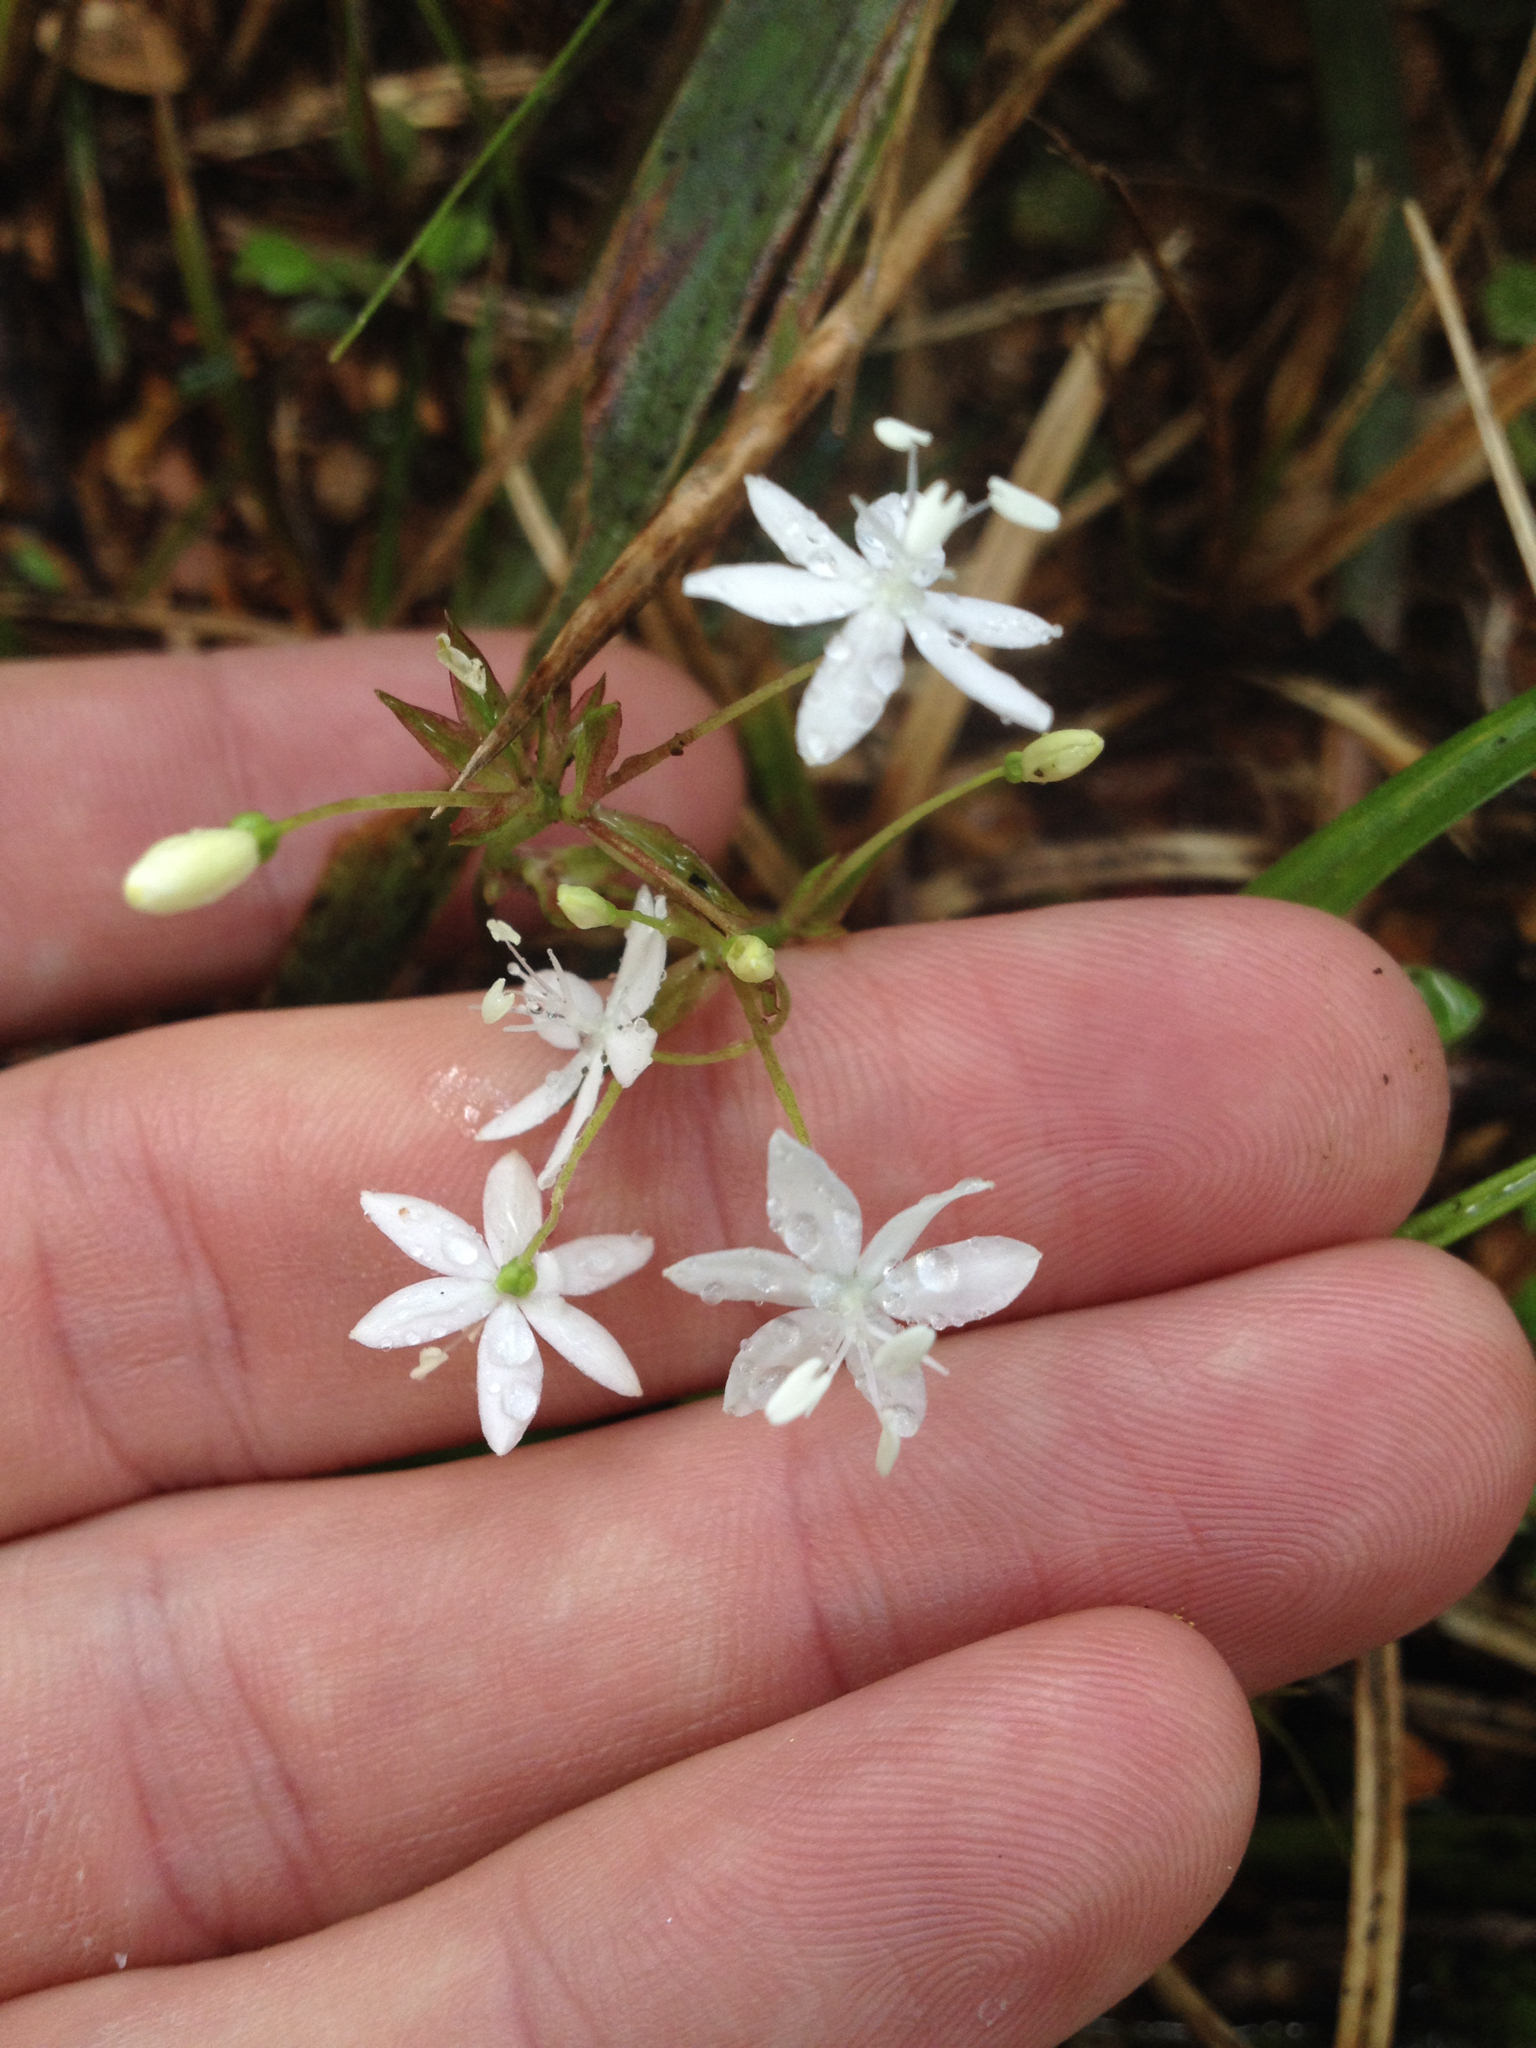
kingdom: Plantae
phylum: Tracheophyta
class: Liliopsida
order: Asparagales
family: Iridaceae
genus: Libertia
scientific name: Libertia micrantha
